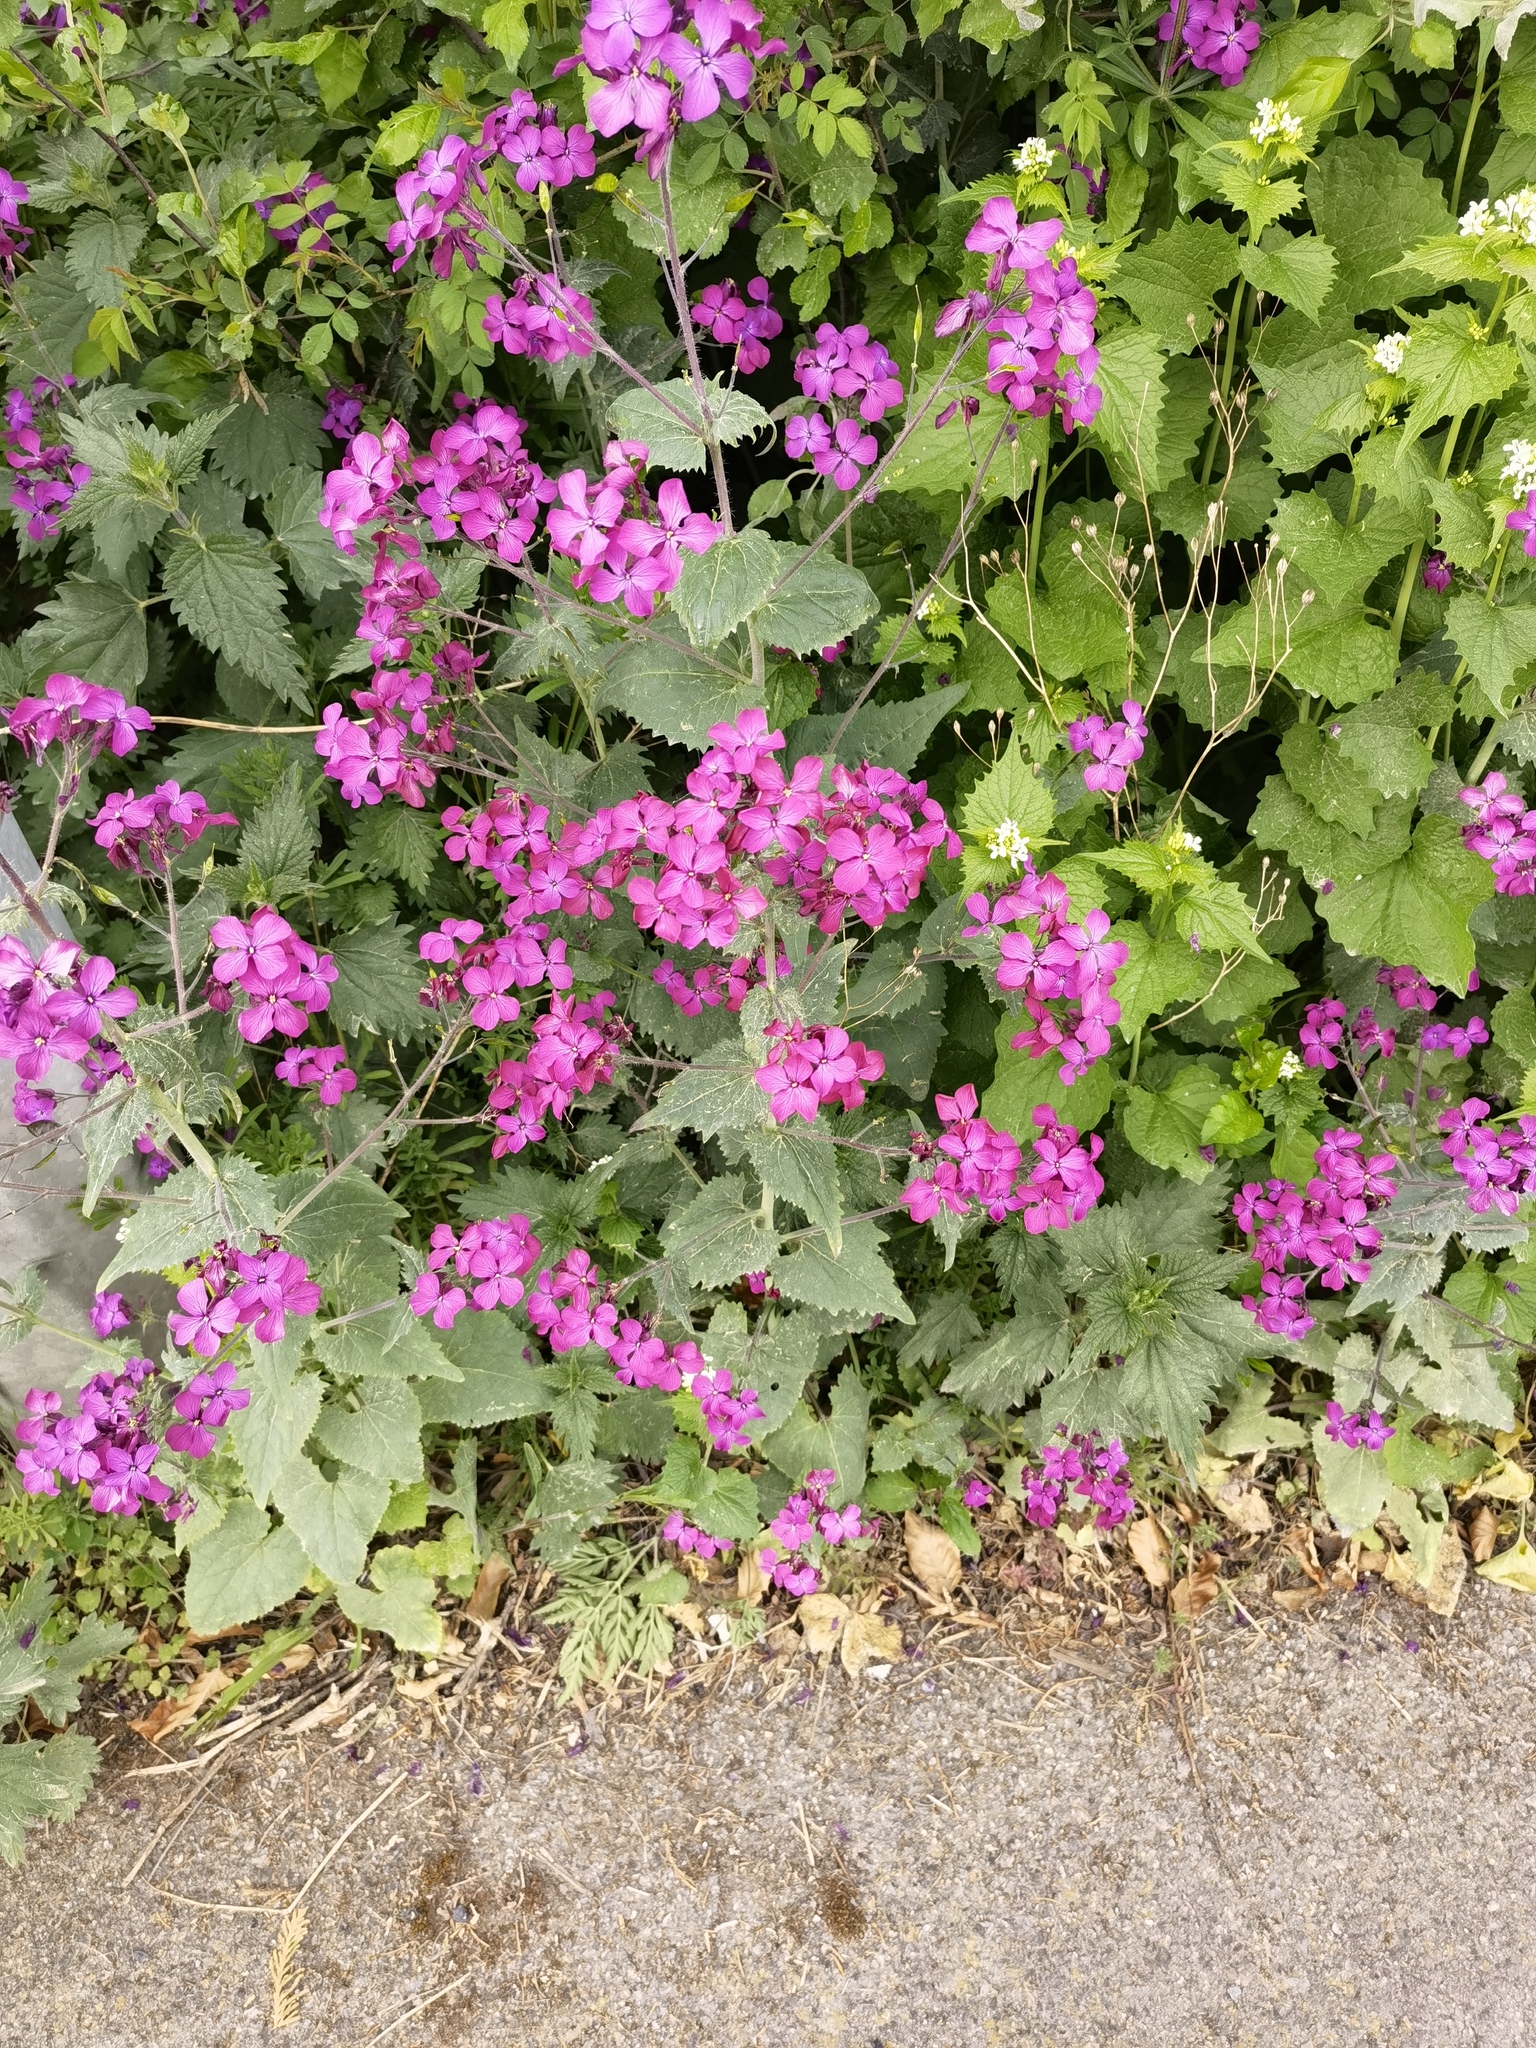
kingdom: Plantae
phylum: Tracheophyta
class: Magnoliopsida
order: Brassicales
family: Brassicaceae
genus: Lunaria
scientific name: Lunaria annua
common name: Honesty
